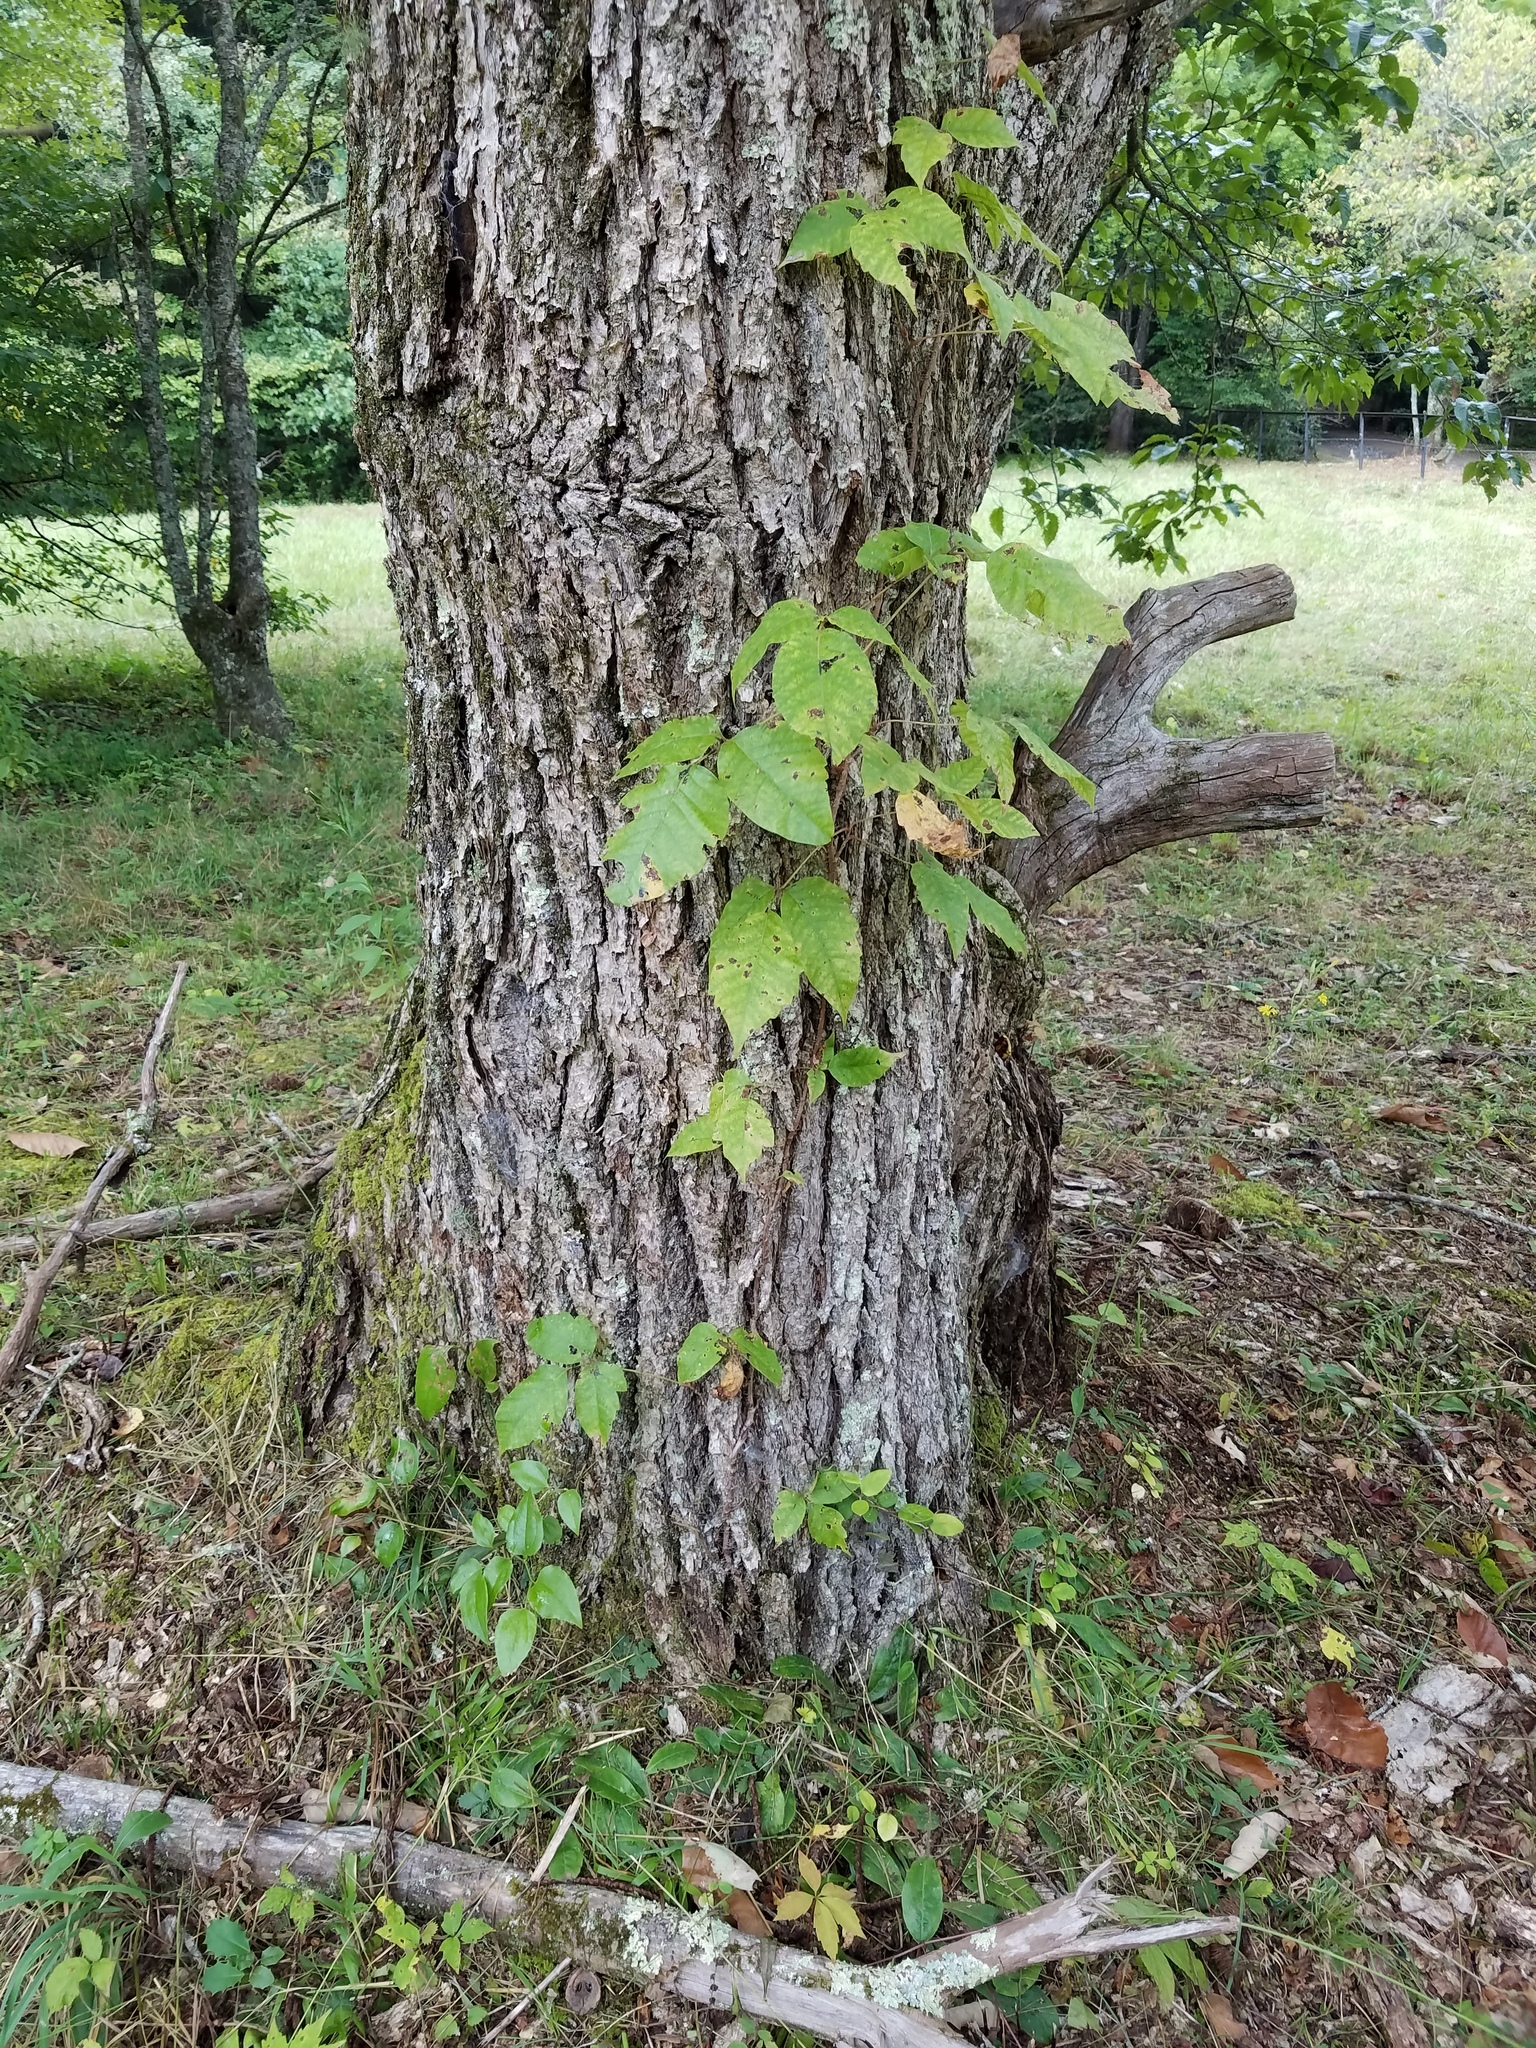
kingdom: Plantae
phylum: Tracheophyta
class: Magnoliopsida
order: Sapindales
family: Anacardiaceae
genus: Toxicodendron
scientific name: Toxicodendron radicans
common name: Poison ivy
